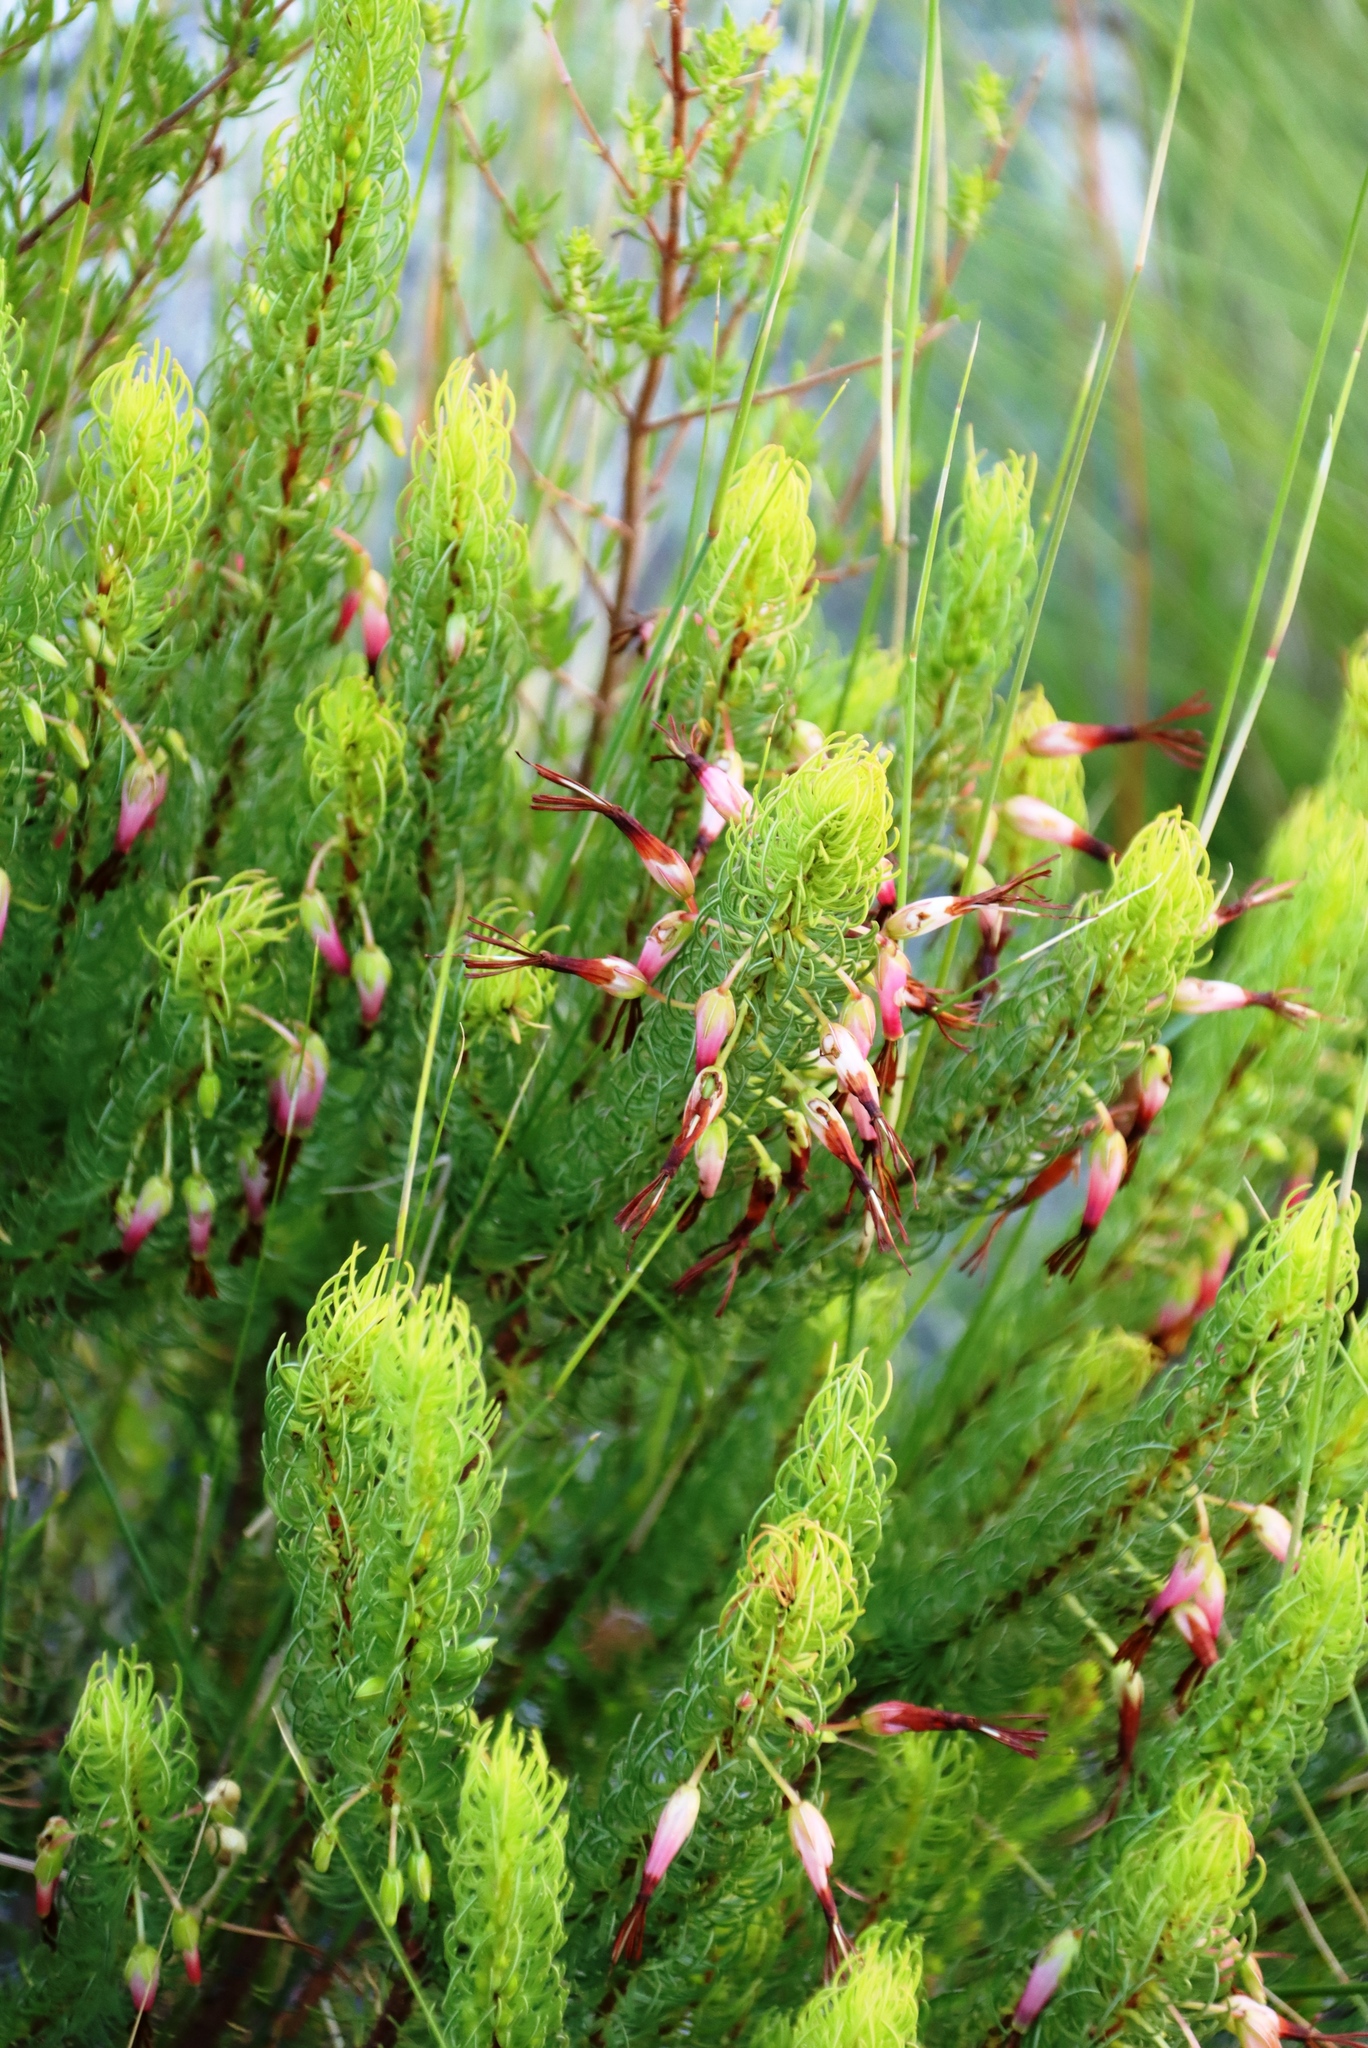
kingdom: Plantae
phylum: Tracheophyta
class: Magnoliopsida
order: Ericales
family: Ericaceae
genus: Erica
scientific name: Erica plukenetii
